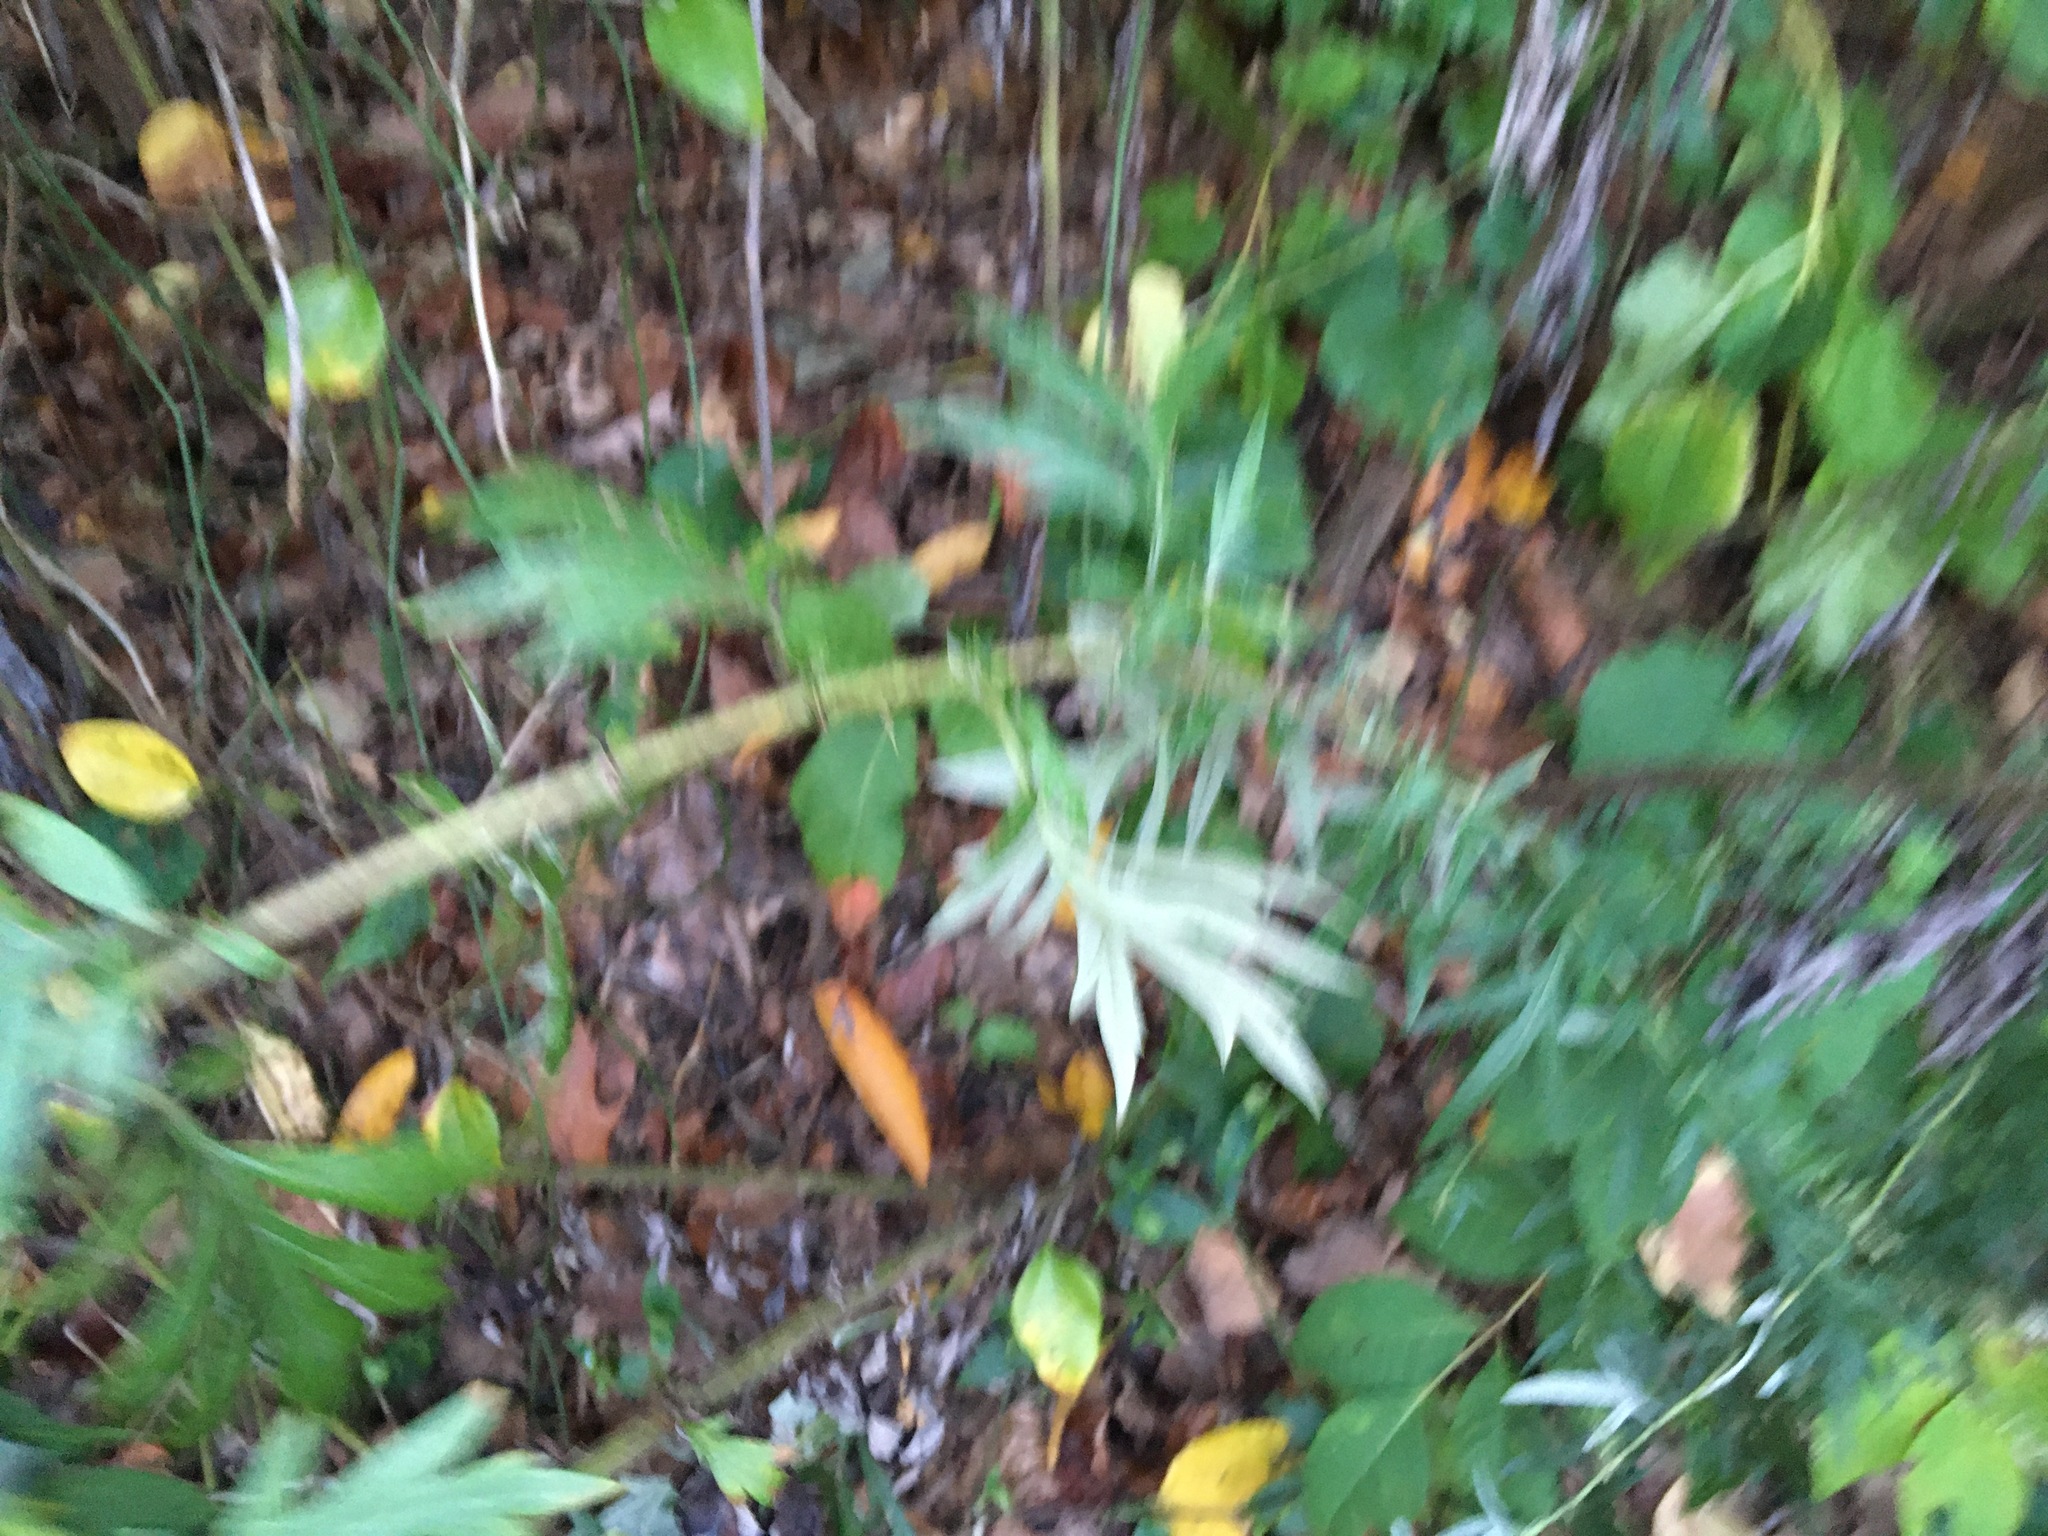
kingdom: Plantae
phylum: Tracheophyta
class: Magnoliopsida
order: Asterales
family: Asteraceae
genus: Artemisia
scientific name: Artemisia vulgaris
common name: Mugwort
